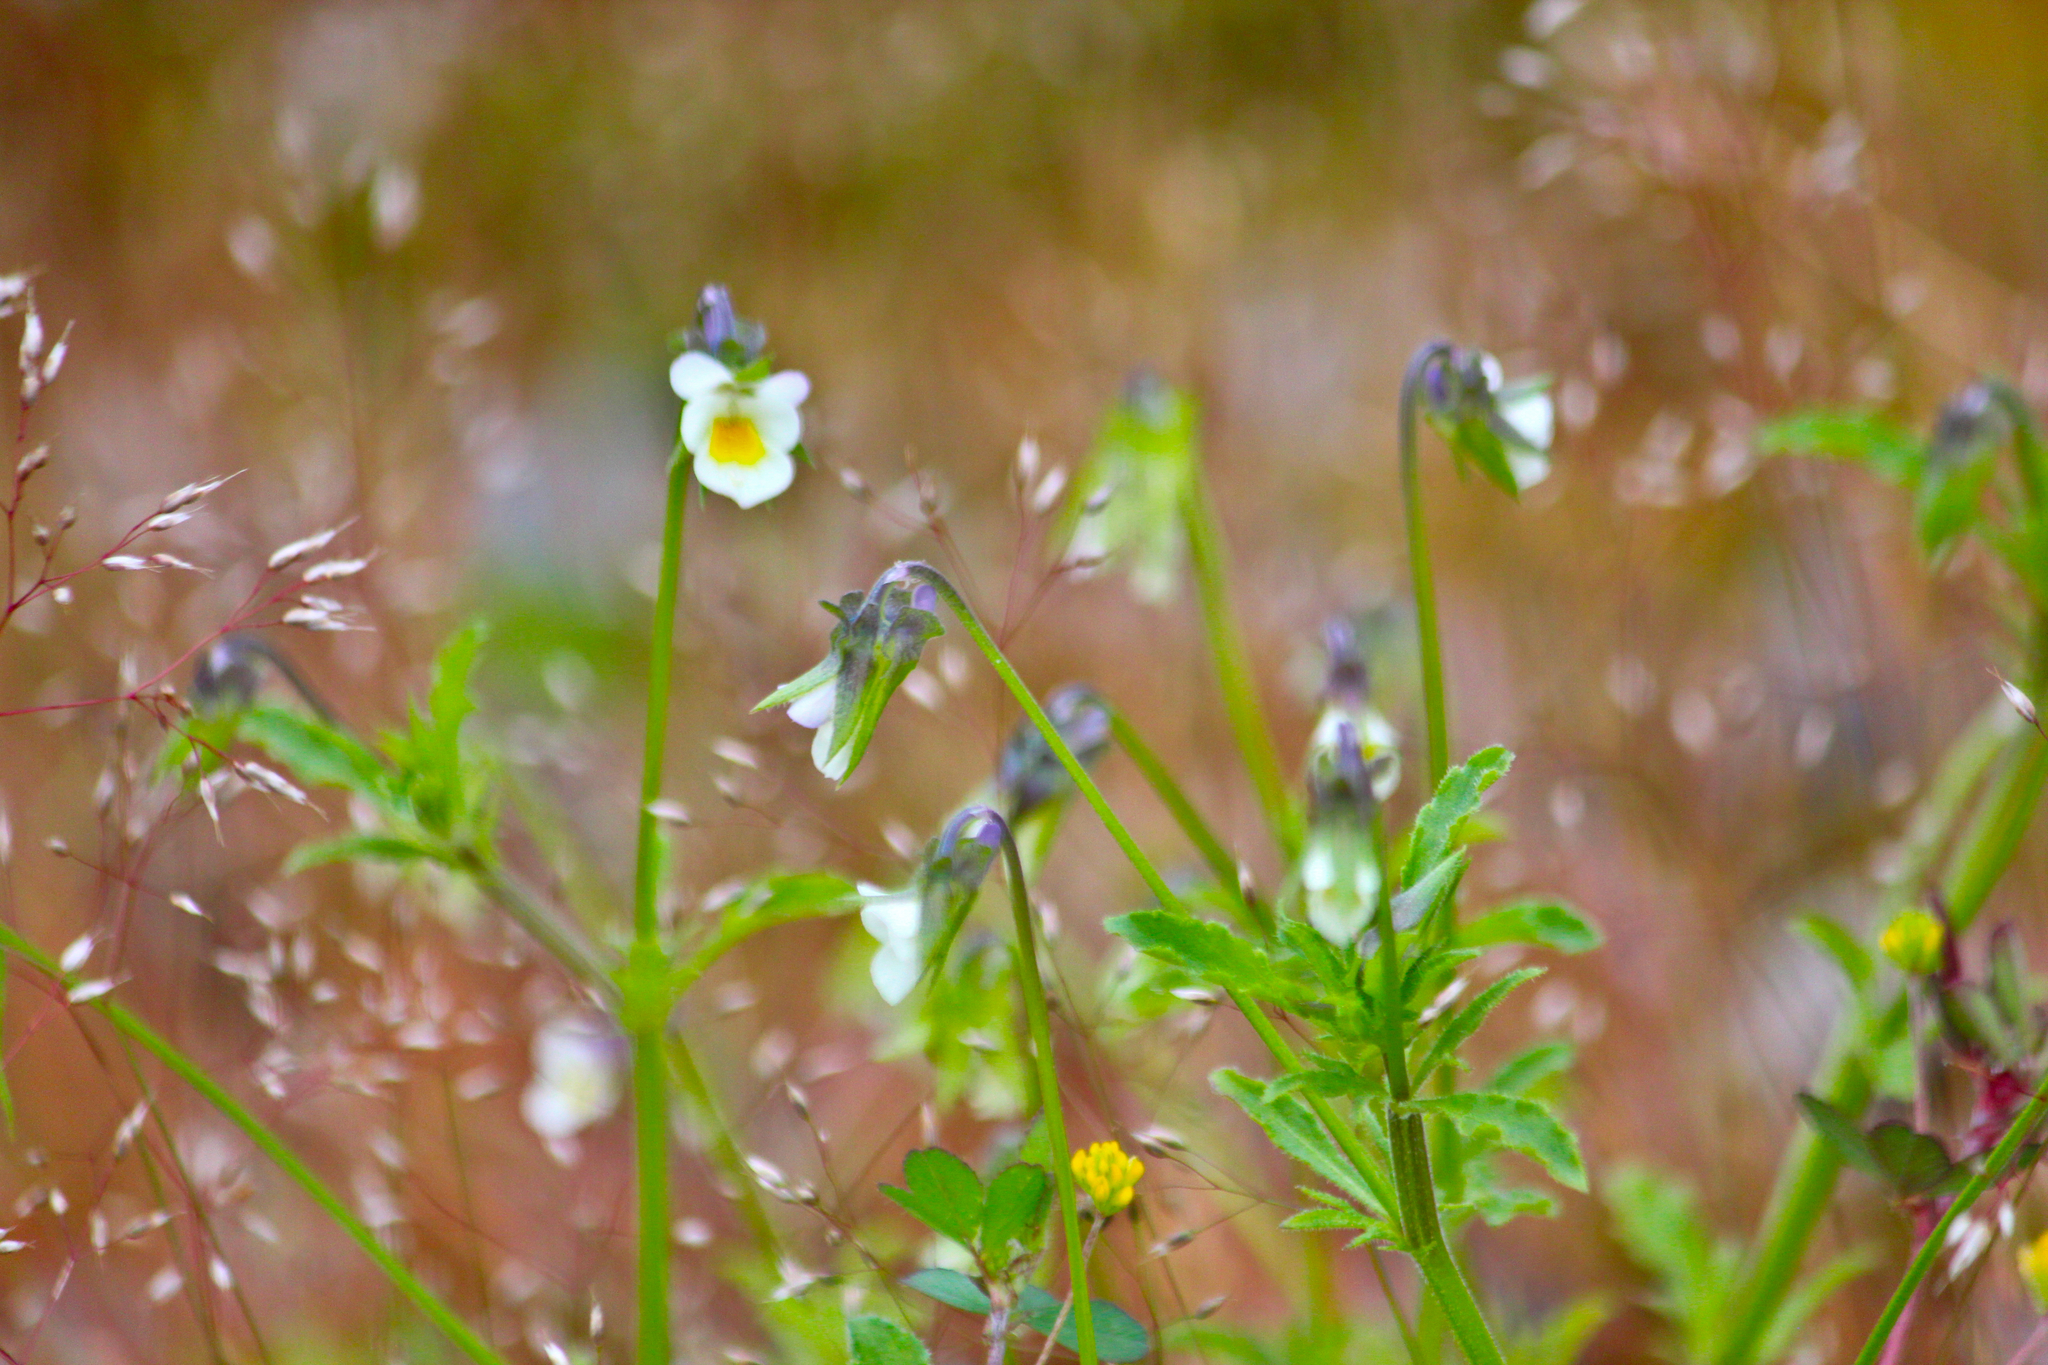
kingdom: Plantae
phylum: Tracheophyta
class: Magnoliopsida
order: Malpighiales
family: Violaceae
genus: Viola
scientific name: Viola arvensis
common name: Field pansy
